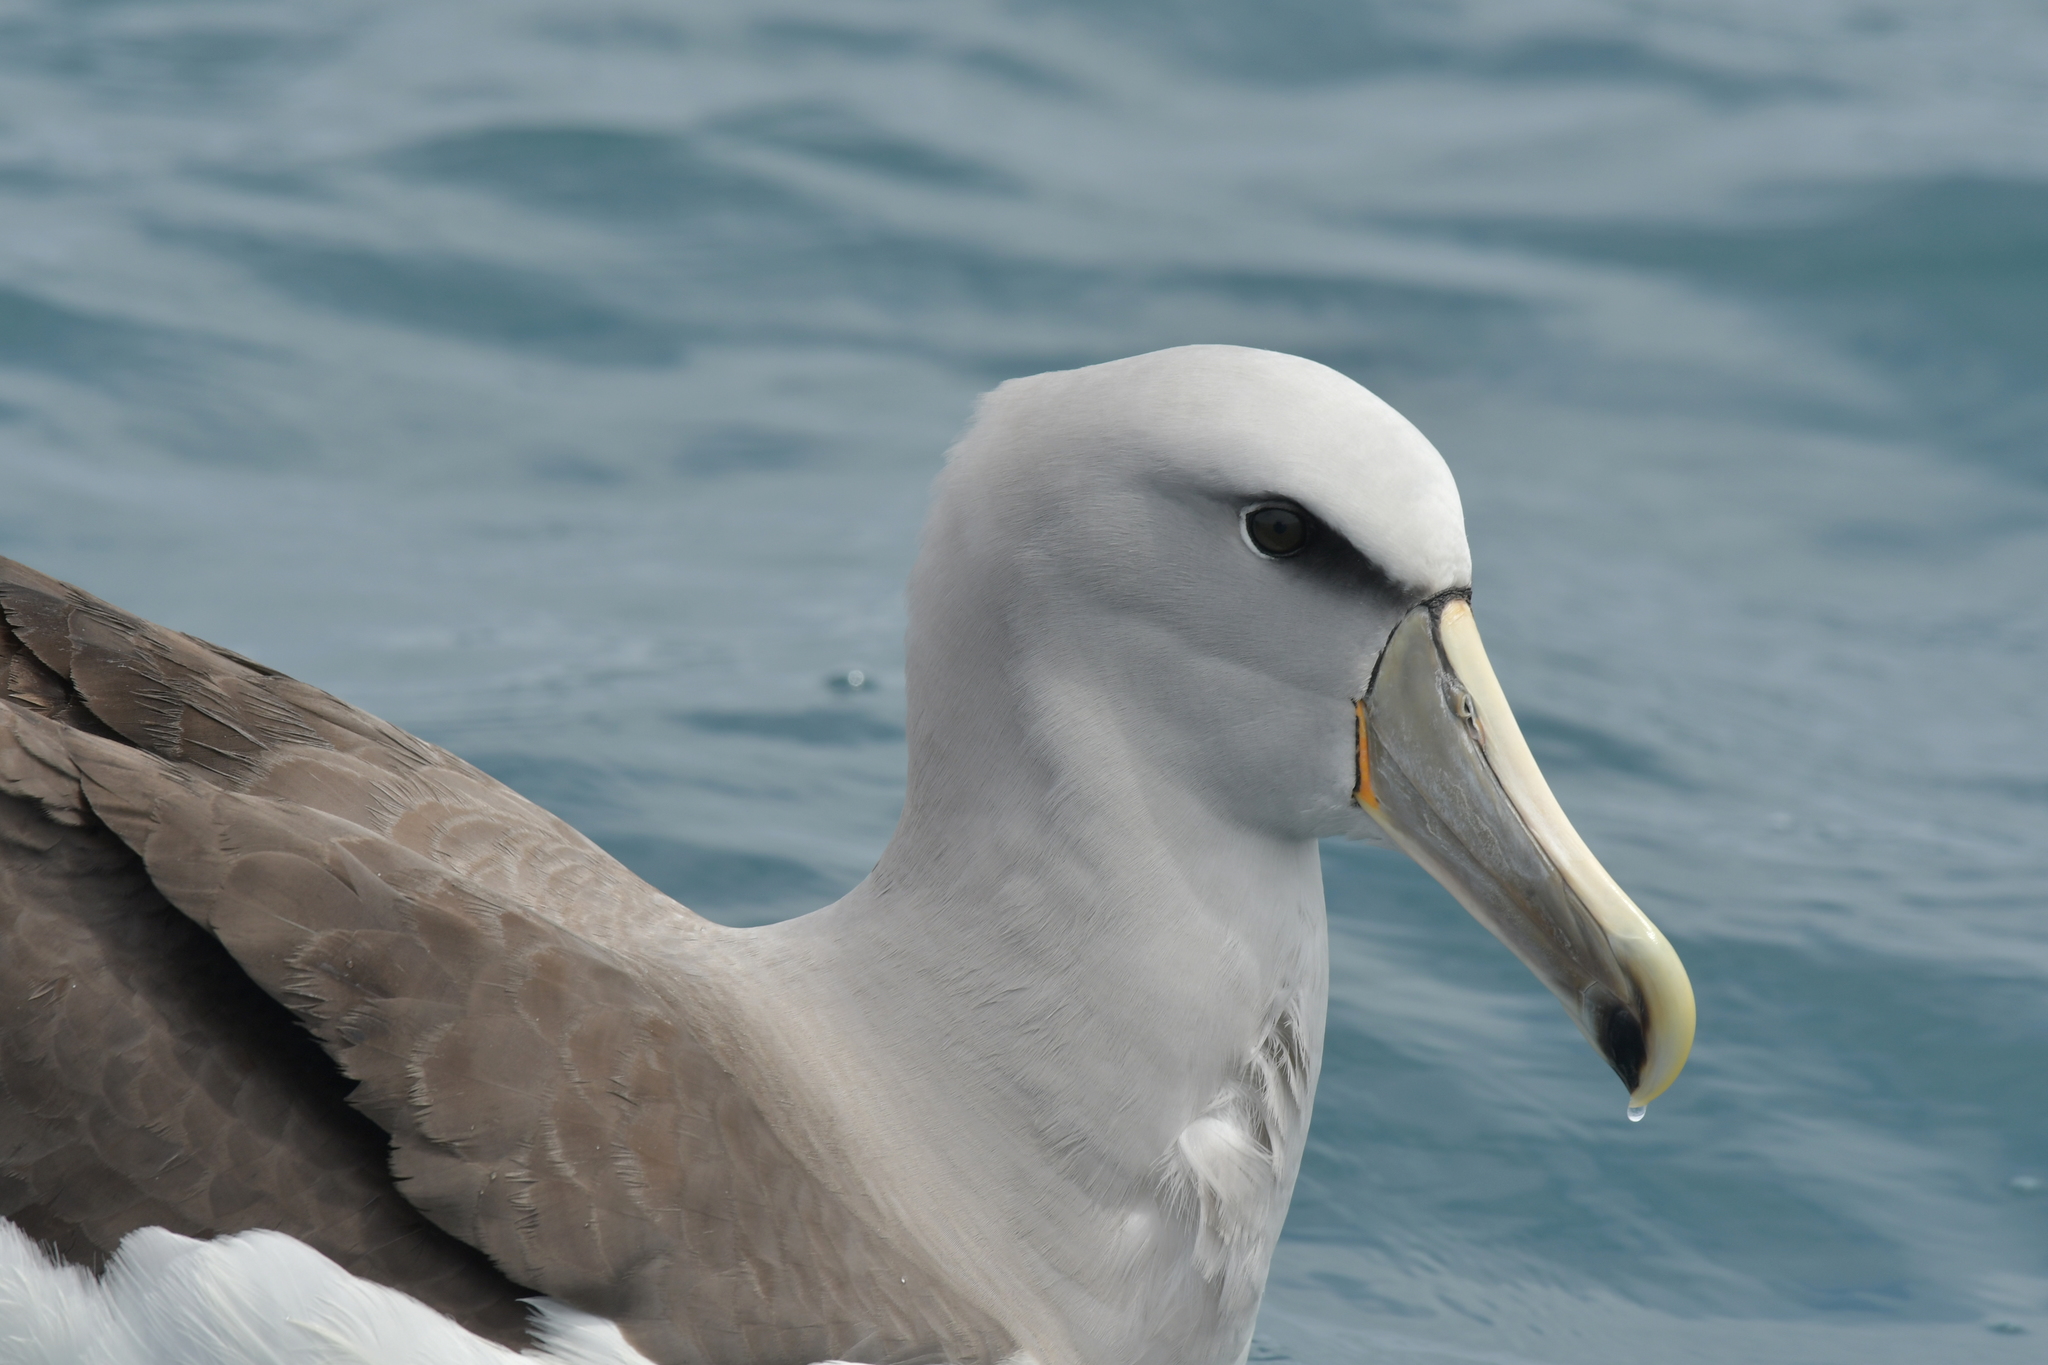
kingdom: Animalia
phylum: Chordata
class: Aves
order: Procellariiformes
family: Diomedeidae
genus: Thalassarche
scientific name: Thalassarche salvini
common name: Salvin's albatross
